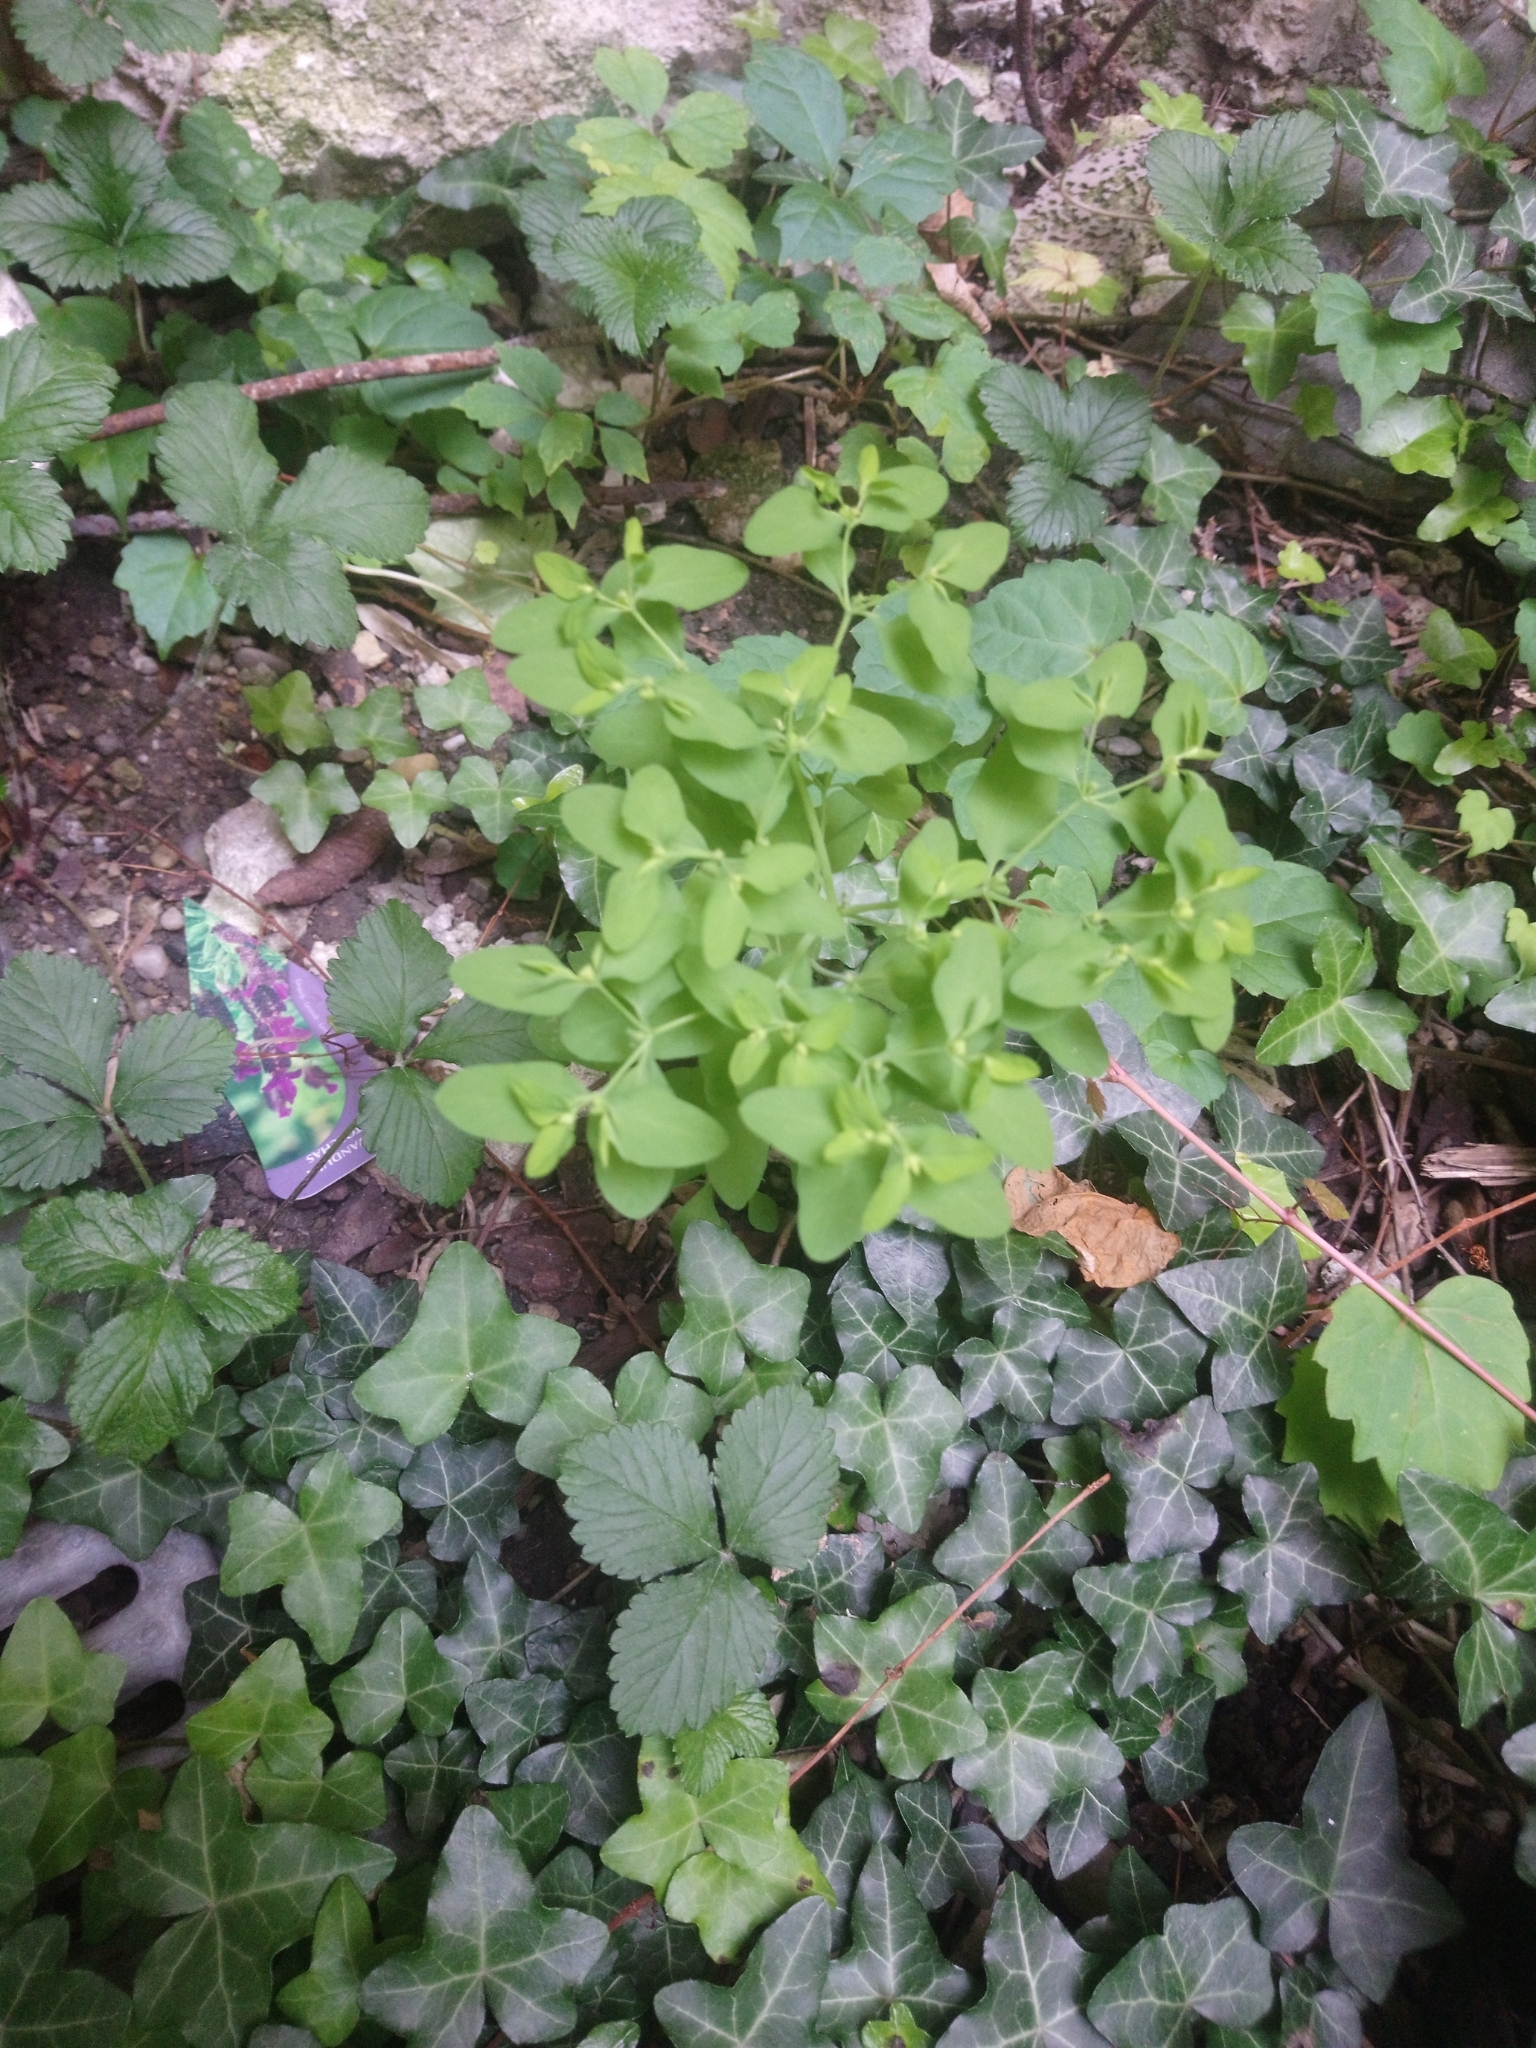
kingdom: Plantae
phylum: Tracheophyta
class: Magnoliopsida
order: Malpighiales
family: Euphorbiaceae
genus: Euphorbia
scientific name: Euphorbia peplus
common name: Petty spurge
